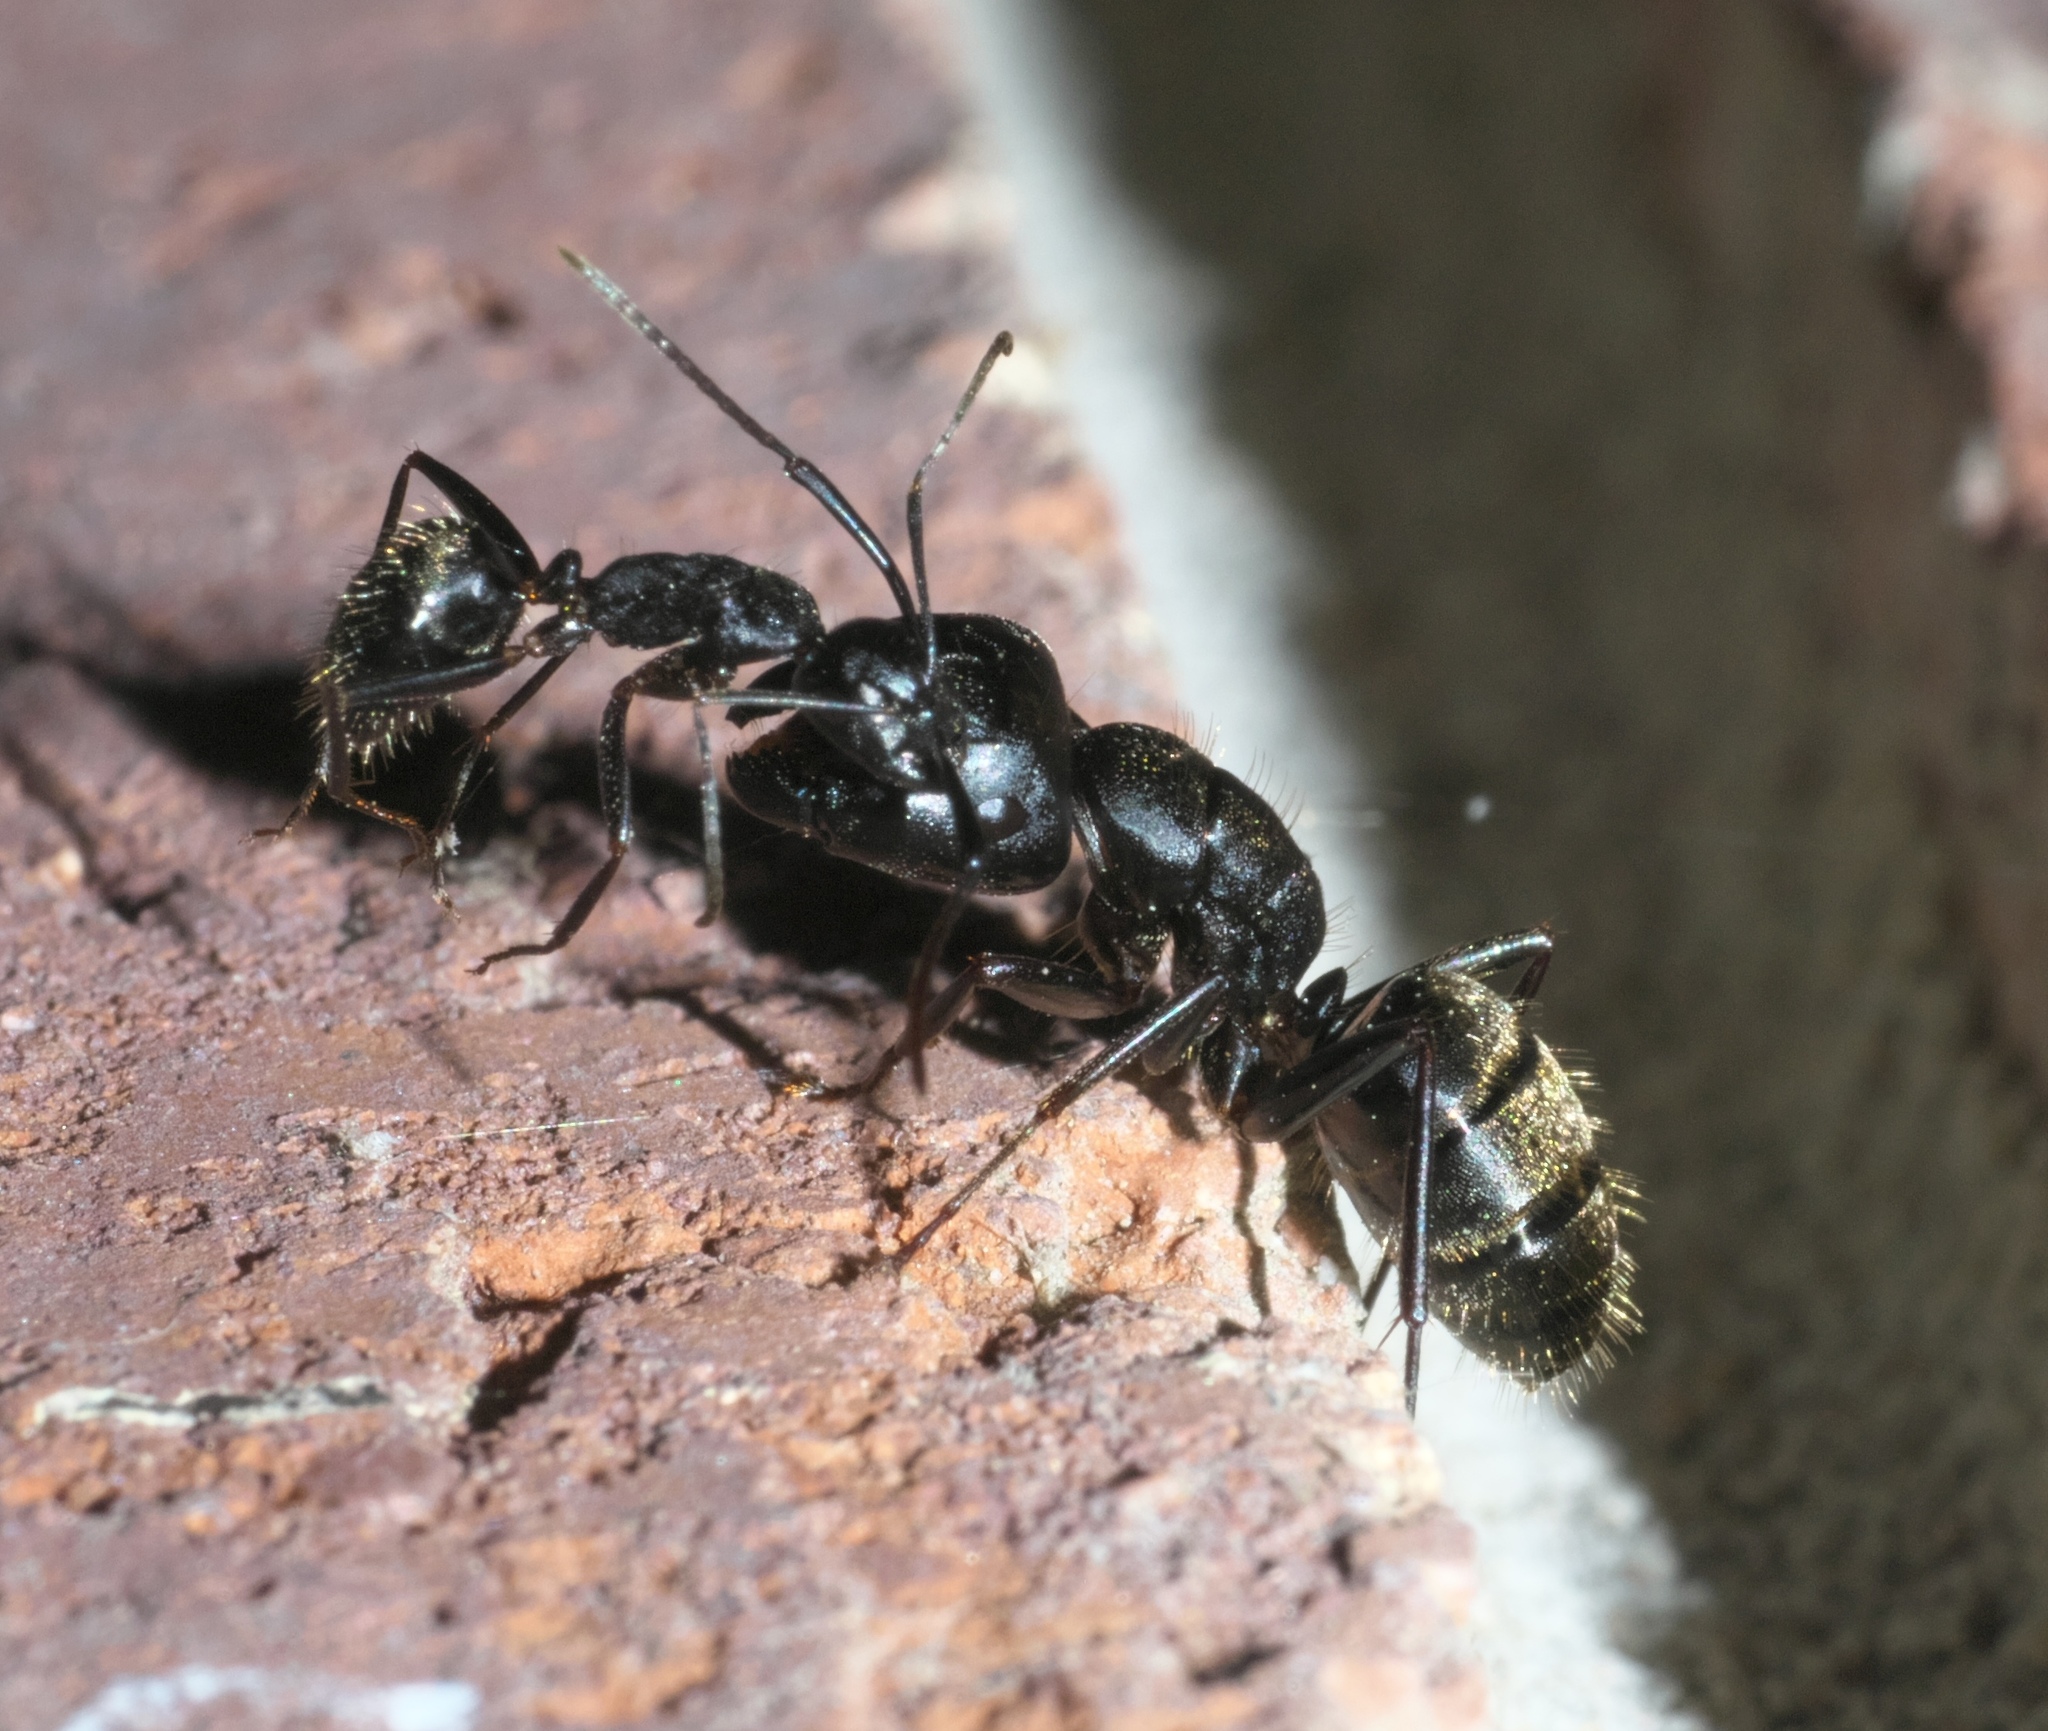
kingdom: Animalia
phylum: Arthropoda
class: Insecta
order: Hymenoptera
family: Formicidae
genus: Camponotus
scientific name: Camponotus pennsylvanicus
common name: Black carpenter ant
